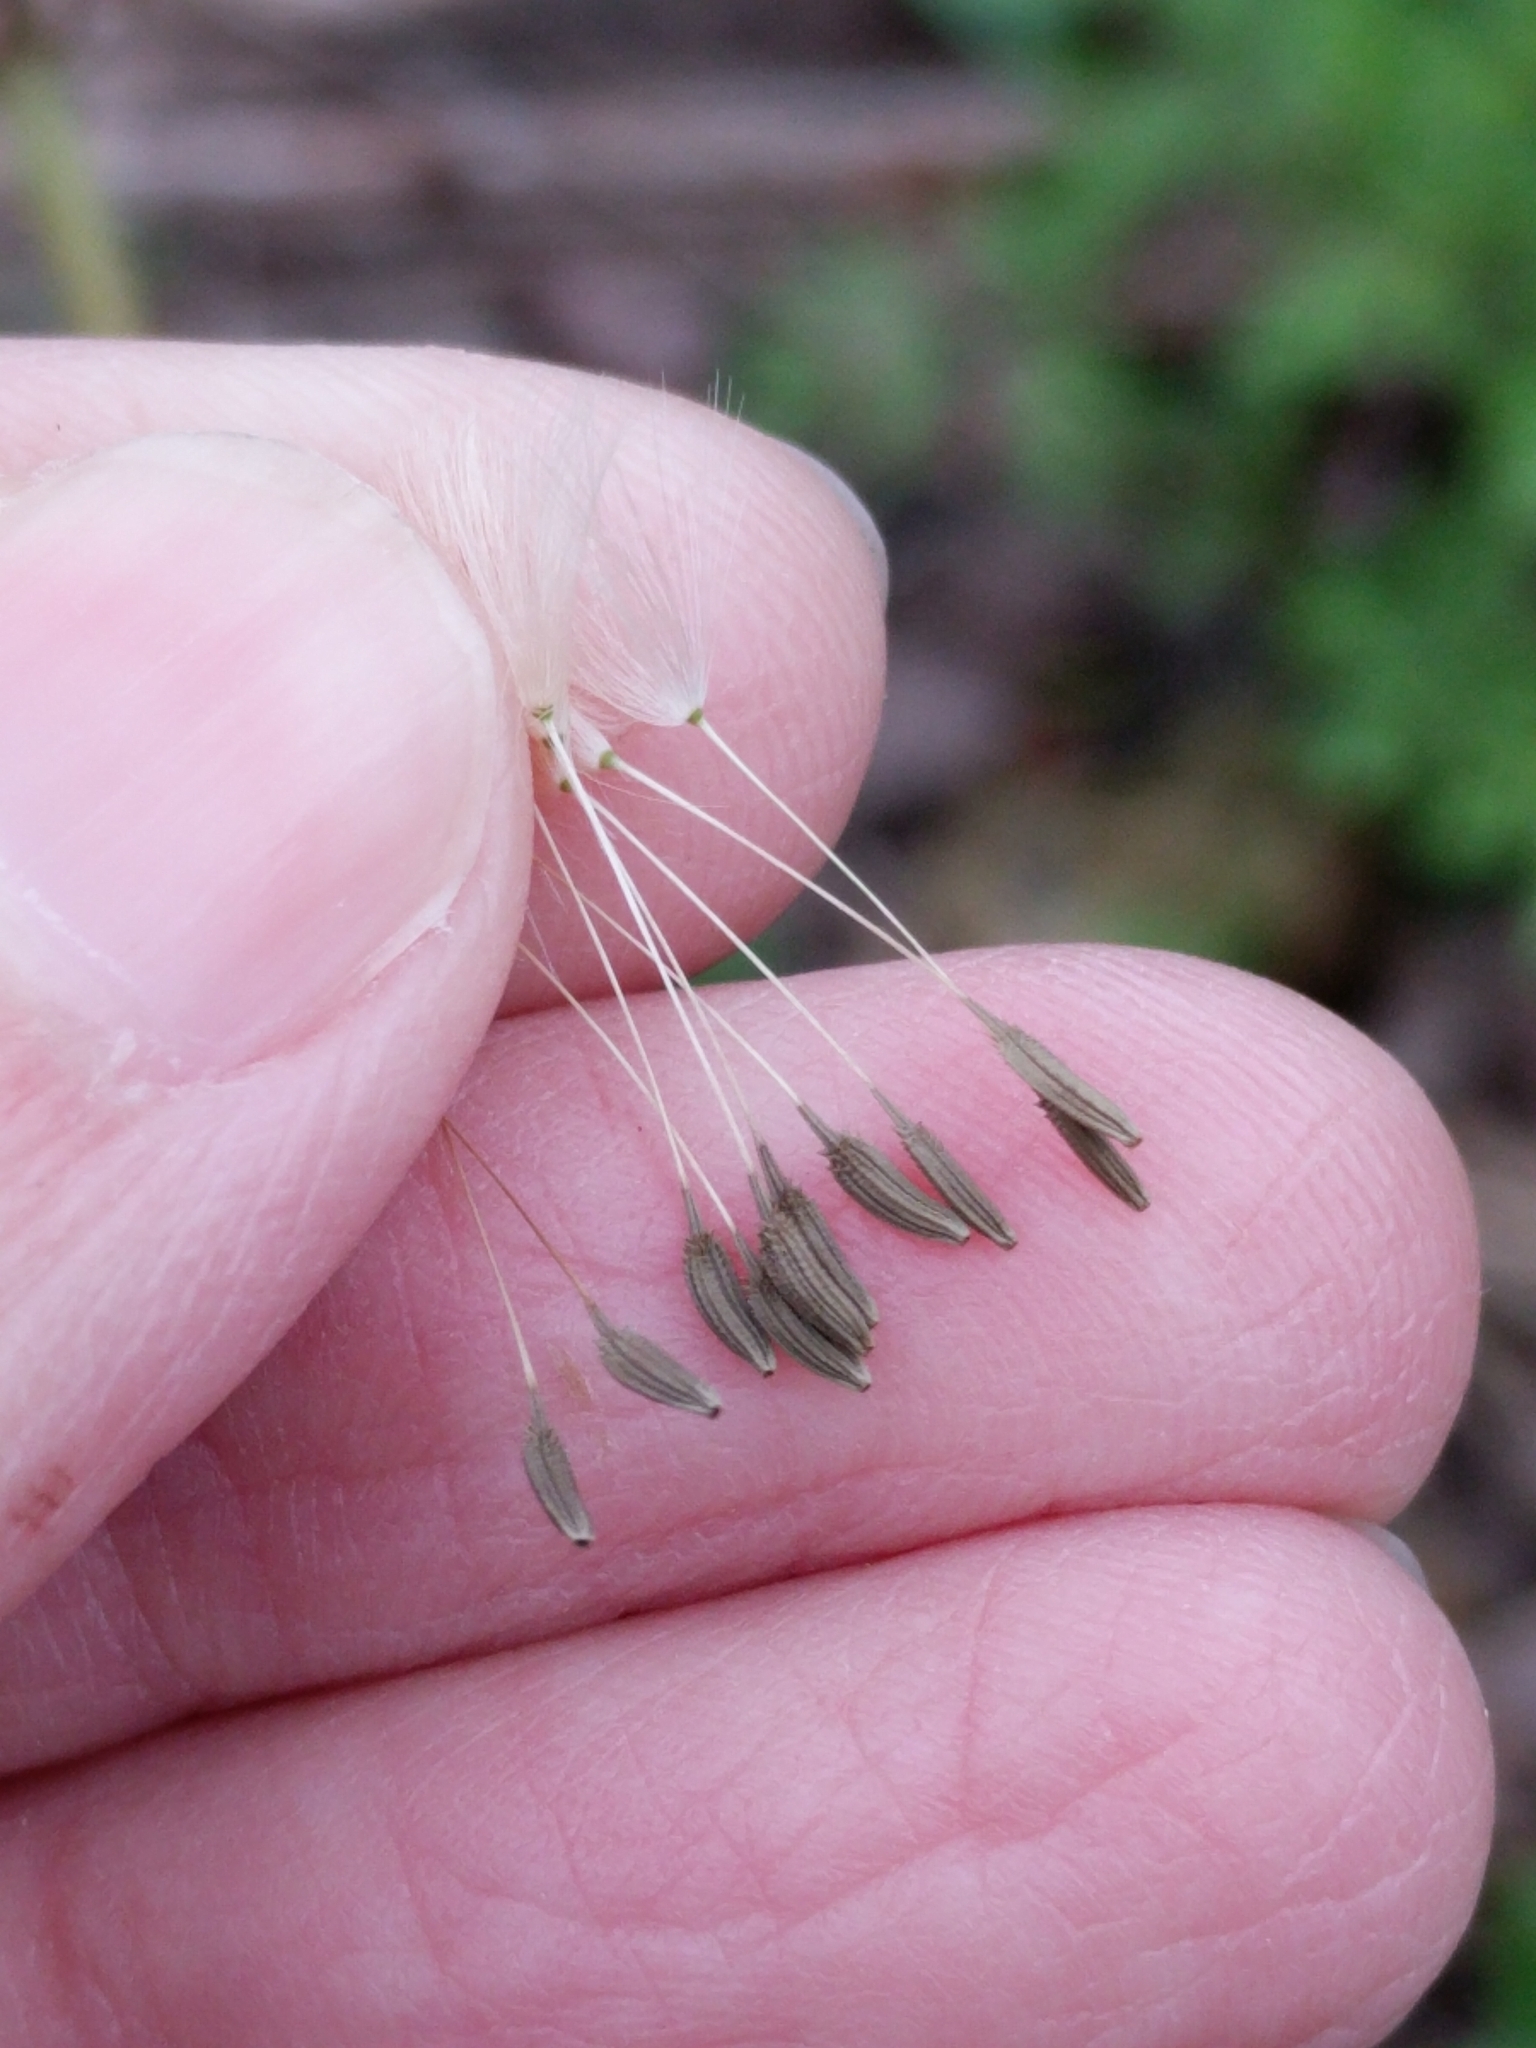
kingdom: Plantae
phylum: Tracheophyta
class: Magnoliopsida
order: Asterales
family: Asteraceae
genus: Taraxacum
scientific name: Taraxacum officinale
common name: Common dandelion
